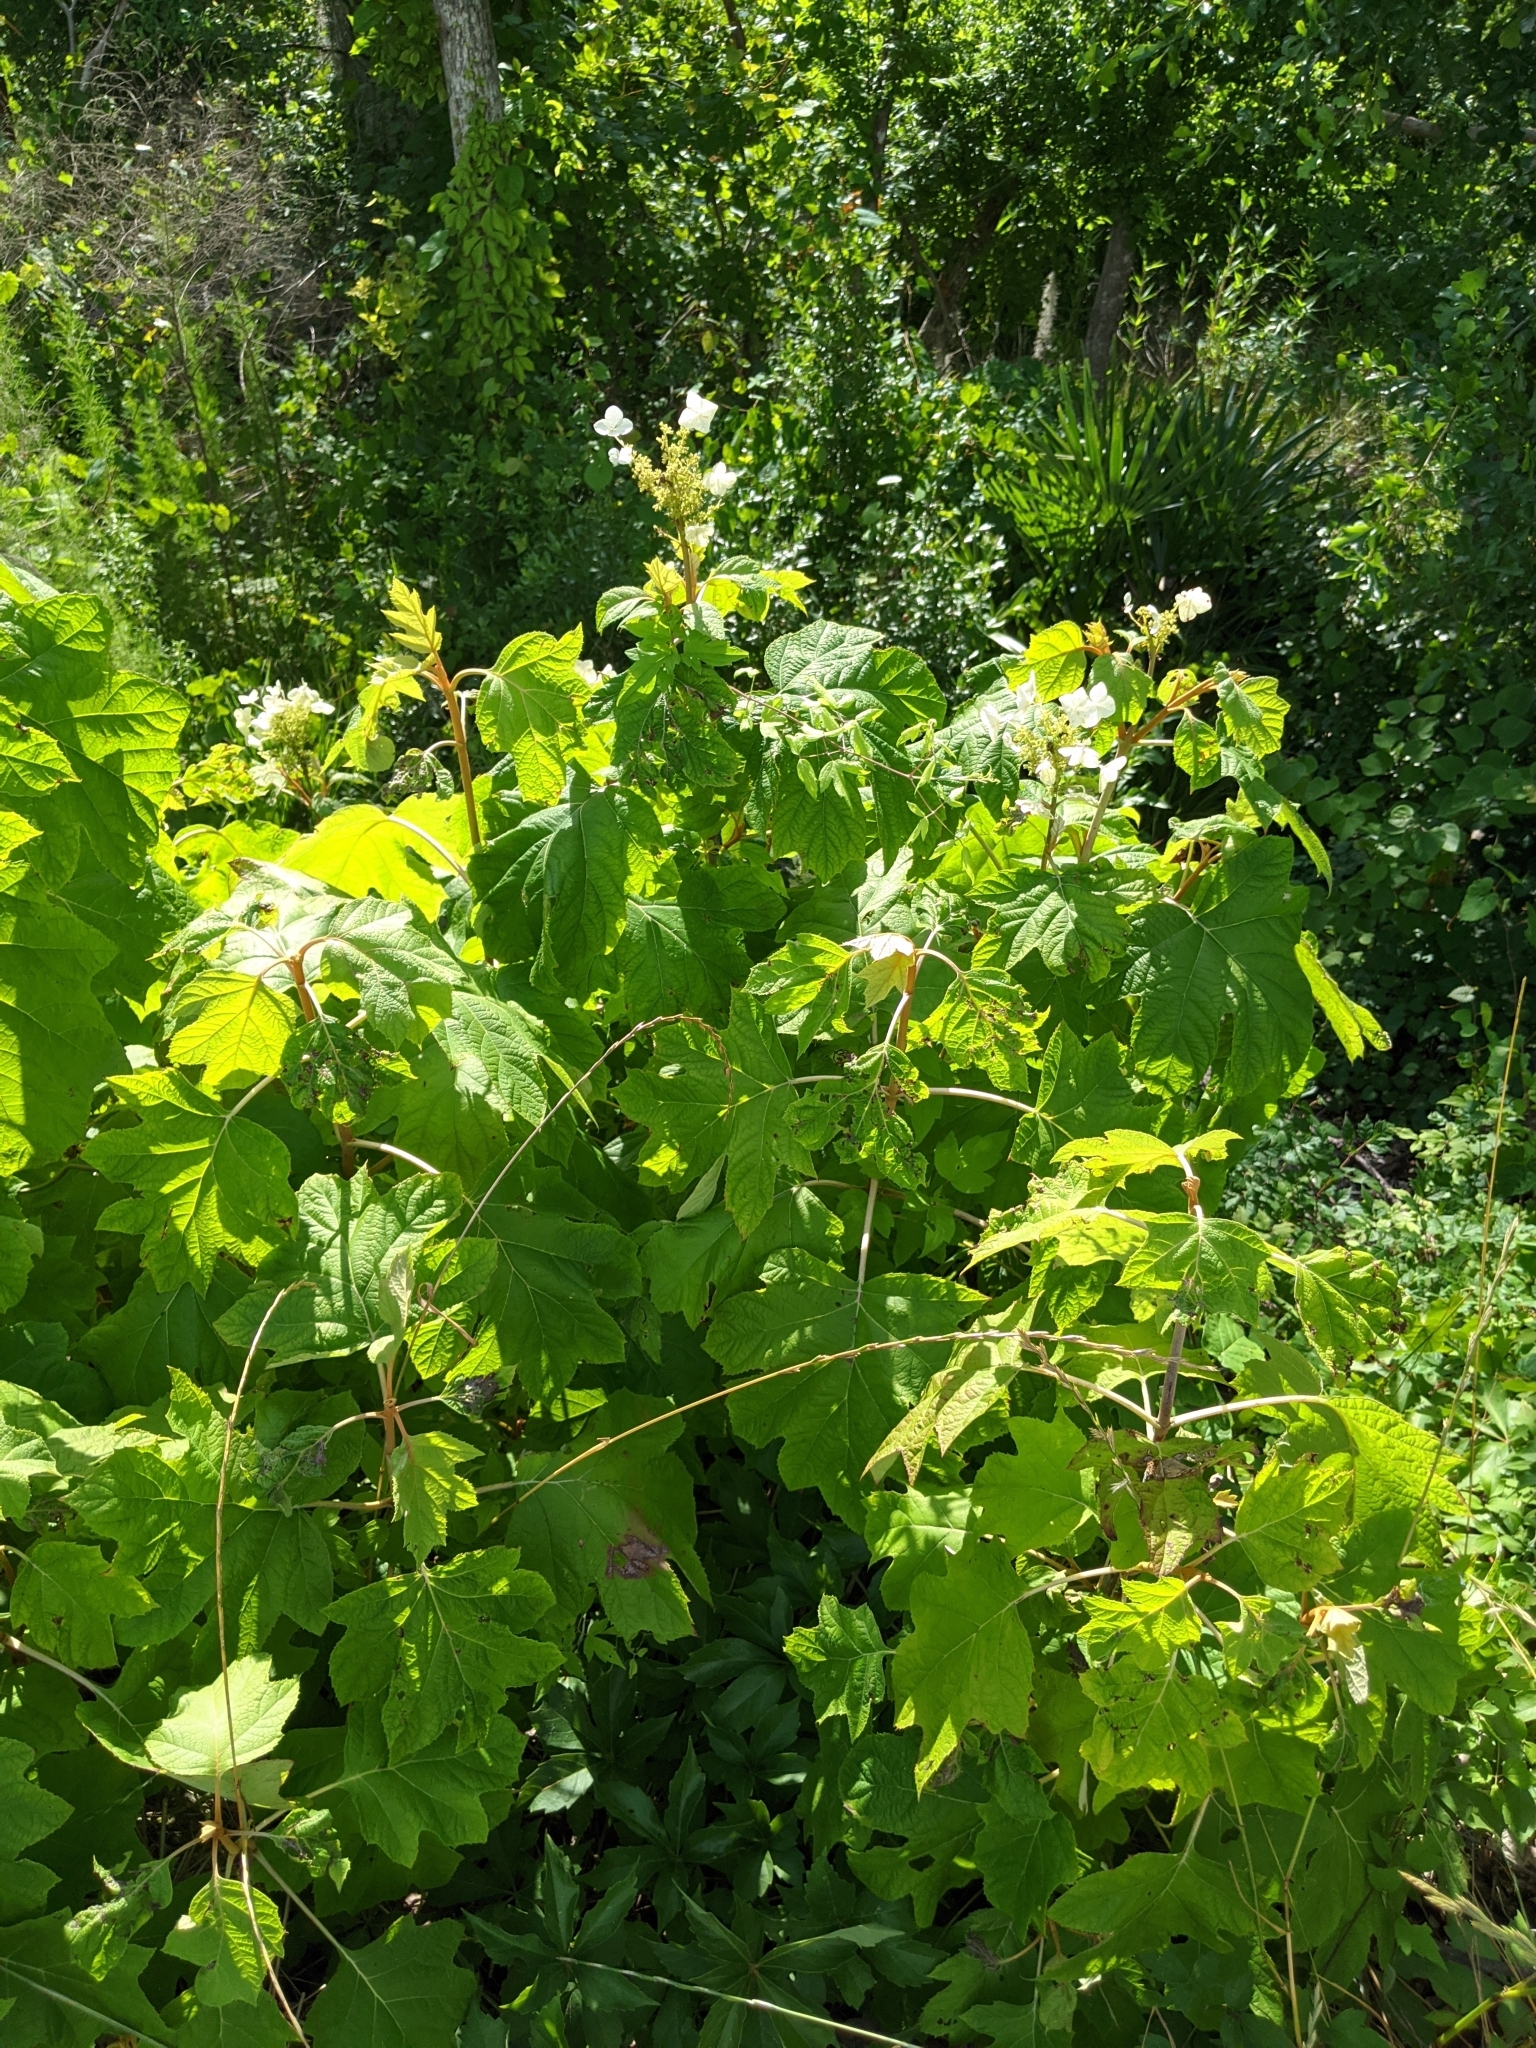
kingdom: Plantae
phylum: Tracheophyta
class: Magnoliopsida
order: Cornales
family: Hydrangeaceae
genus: Hydrangea
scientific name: Hydrangea quercifolia
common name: Oak-leaf hydrangea
